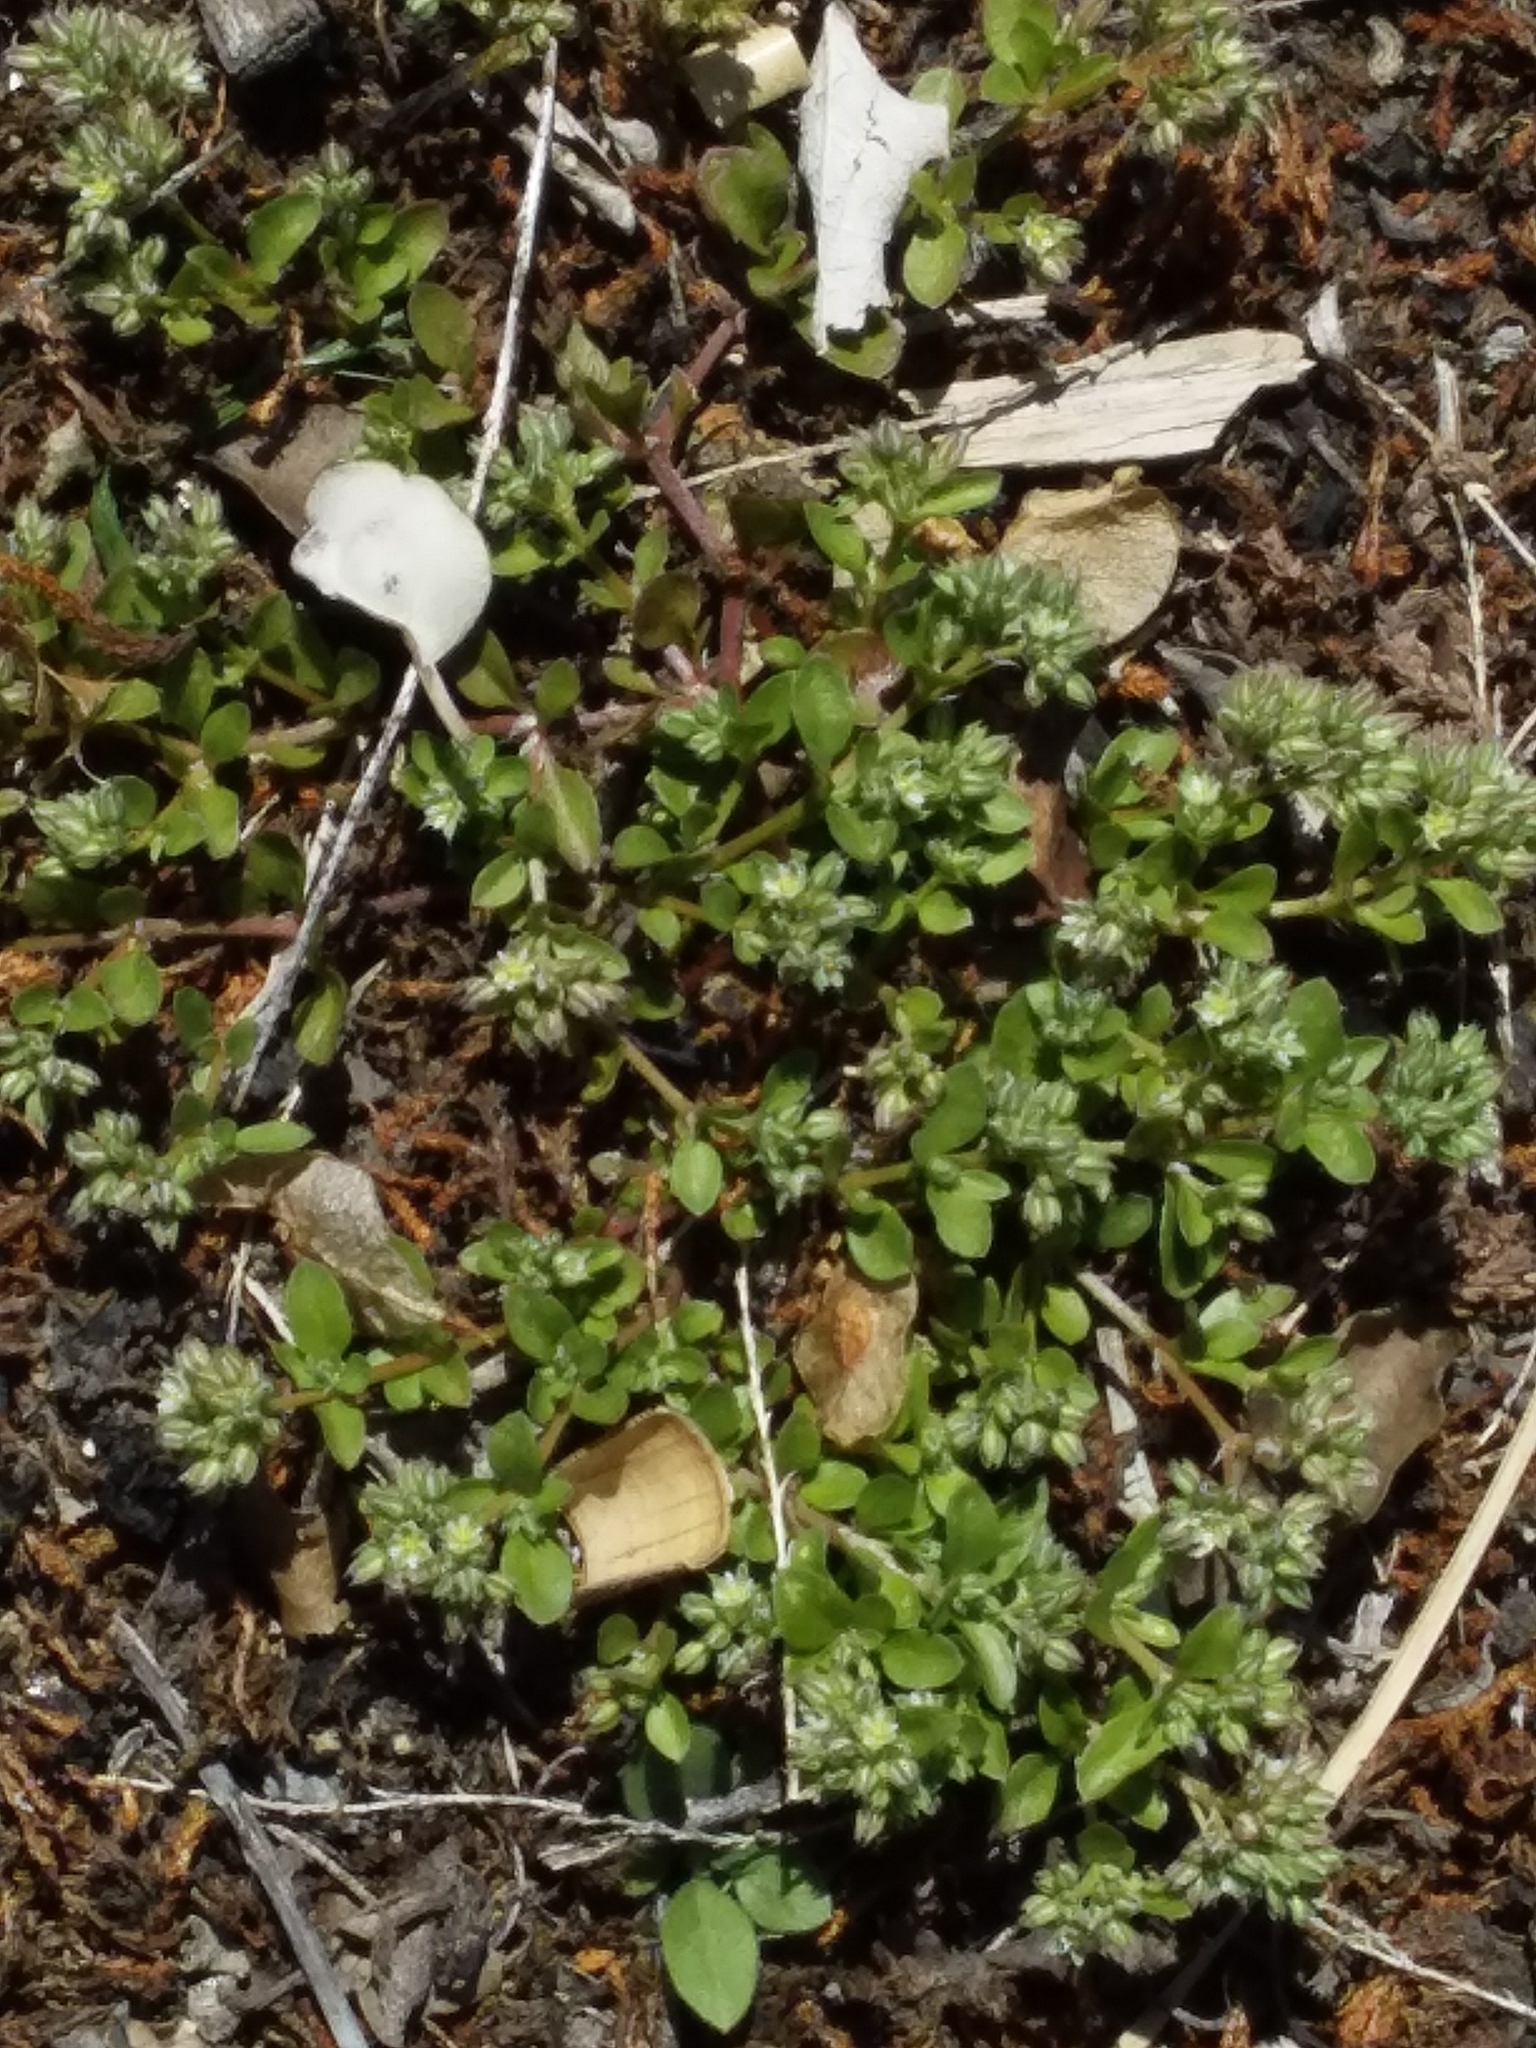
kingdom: Plantae
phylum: Tracheophyta
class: Magnoliopsida
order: Caryophyllales
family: Caryophyllaceae
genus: Polycarpon
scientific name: Polycarpon tetraphyllum
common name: Four-leaved all-seed
